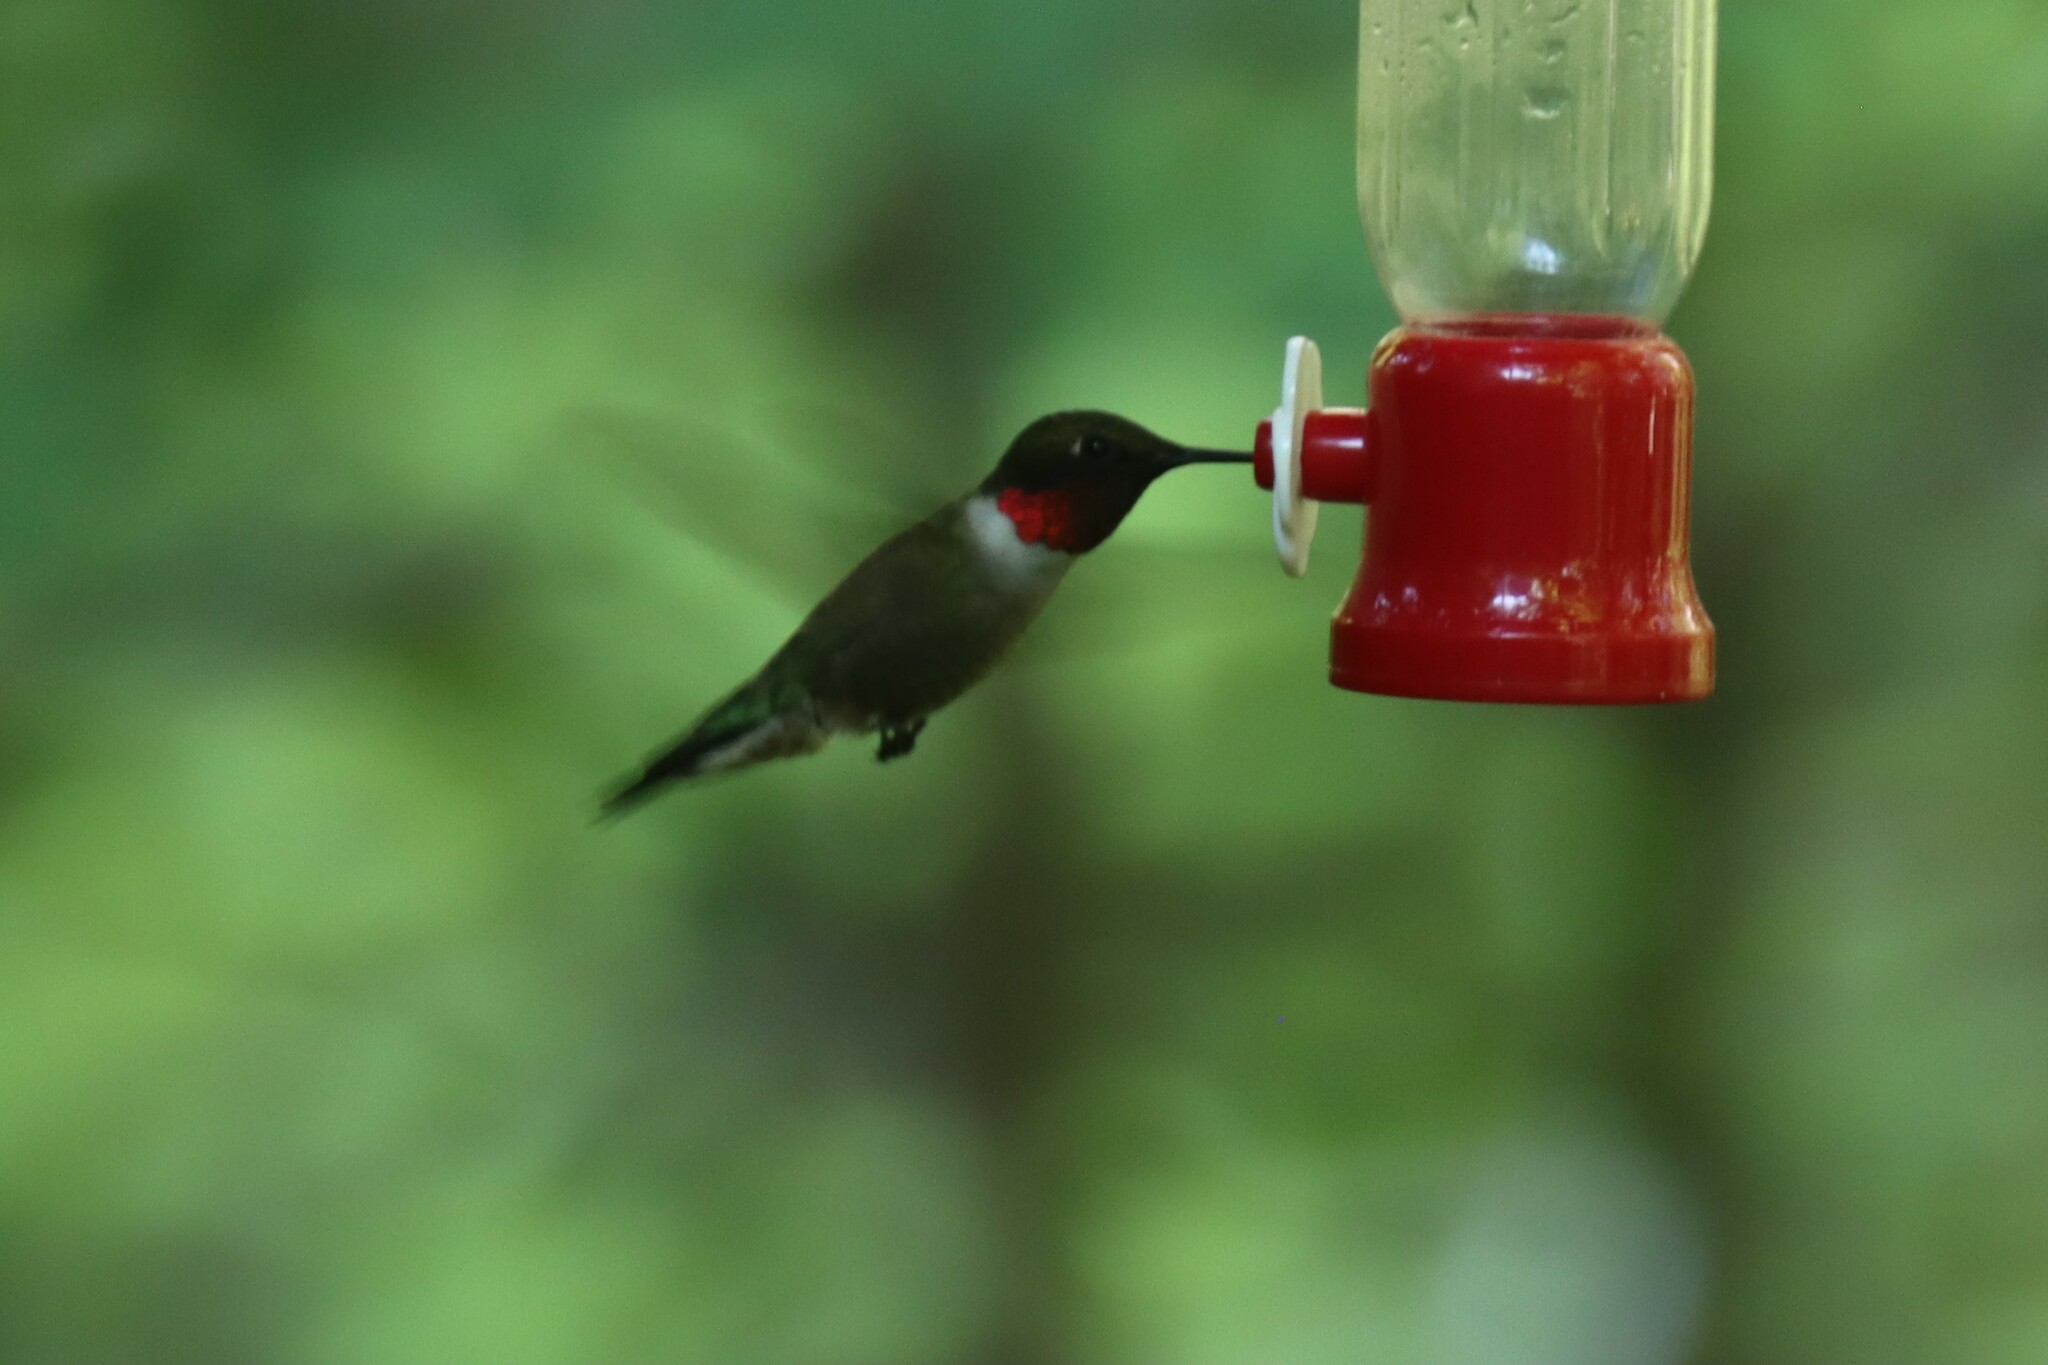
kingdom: Animalia
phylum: Chordata
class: Aves
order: Apodiformes
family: Trochilidae
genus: Archilochus
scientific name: Archilochus colubris
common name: Ruby-throated hummingbird
